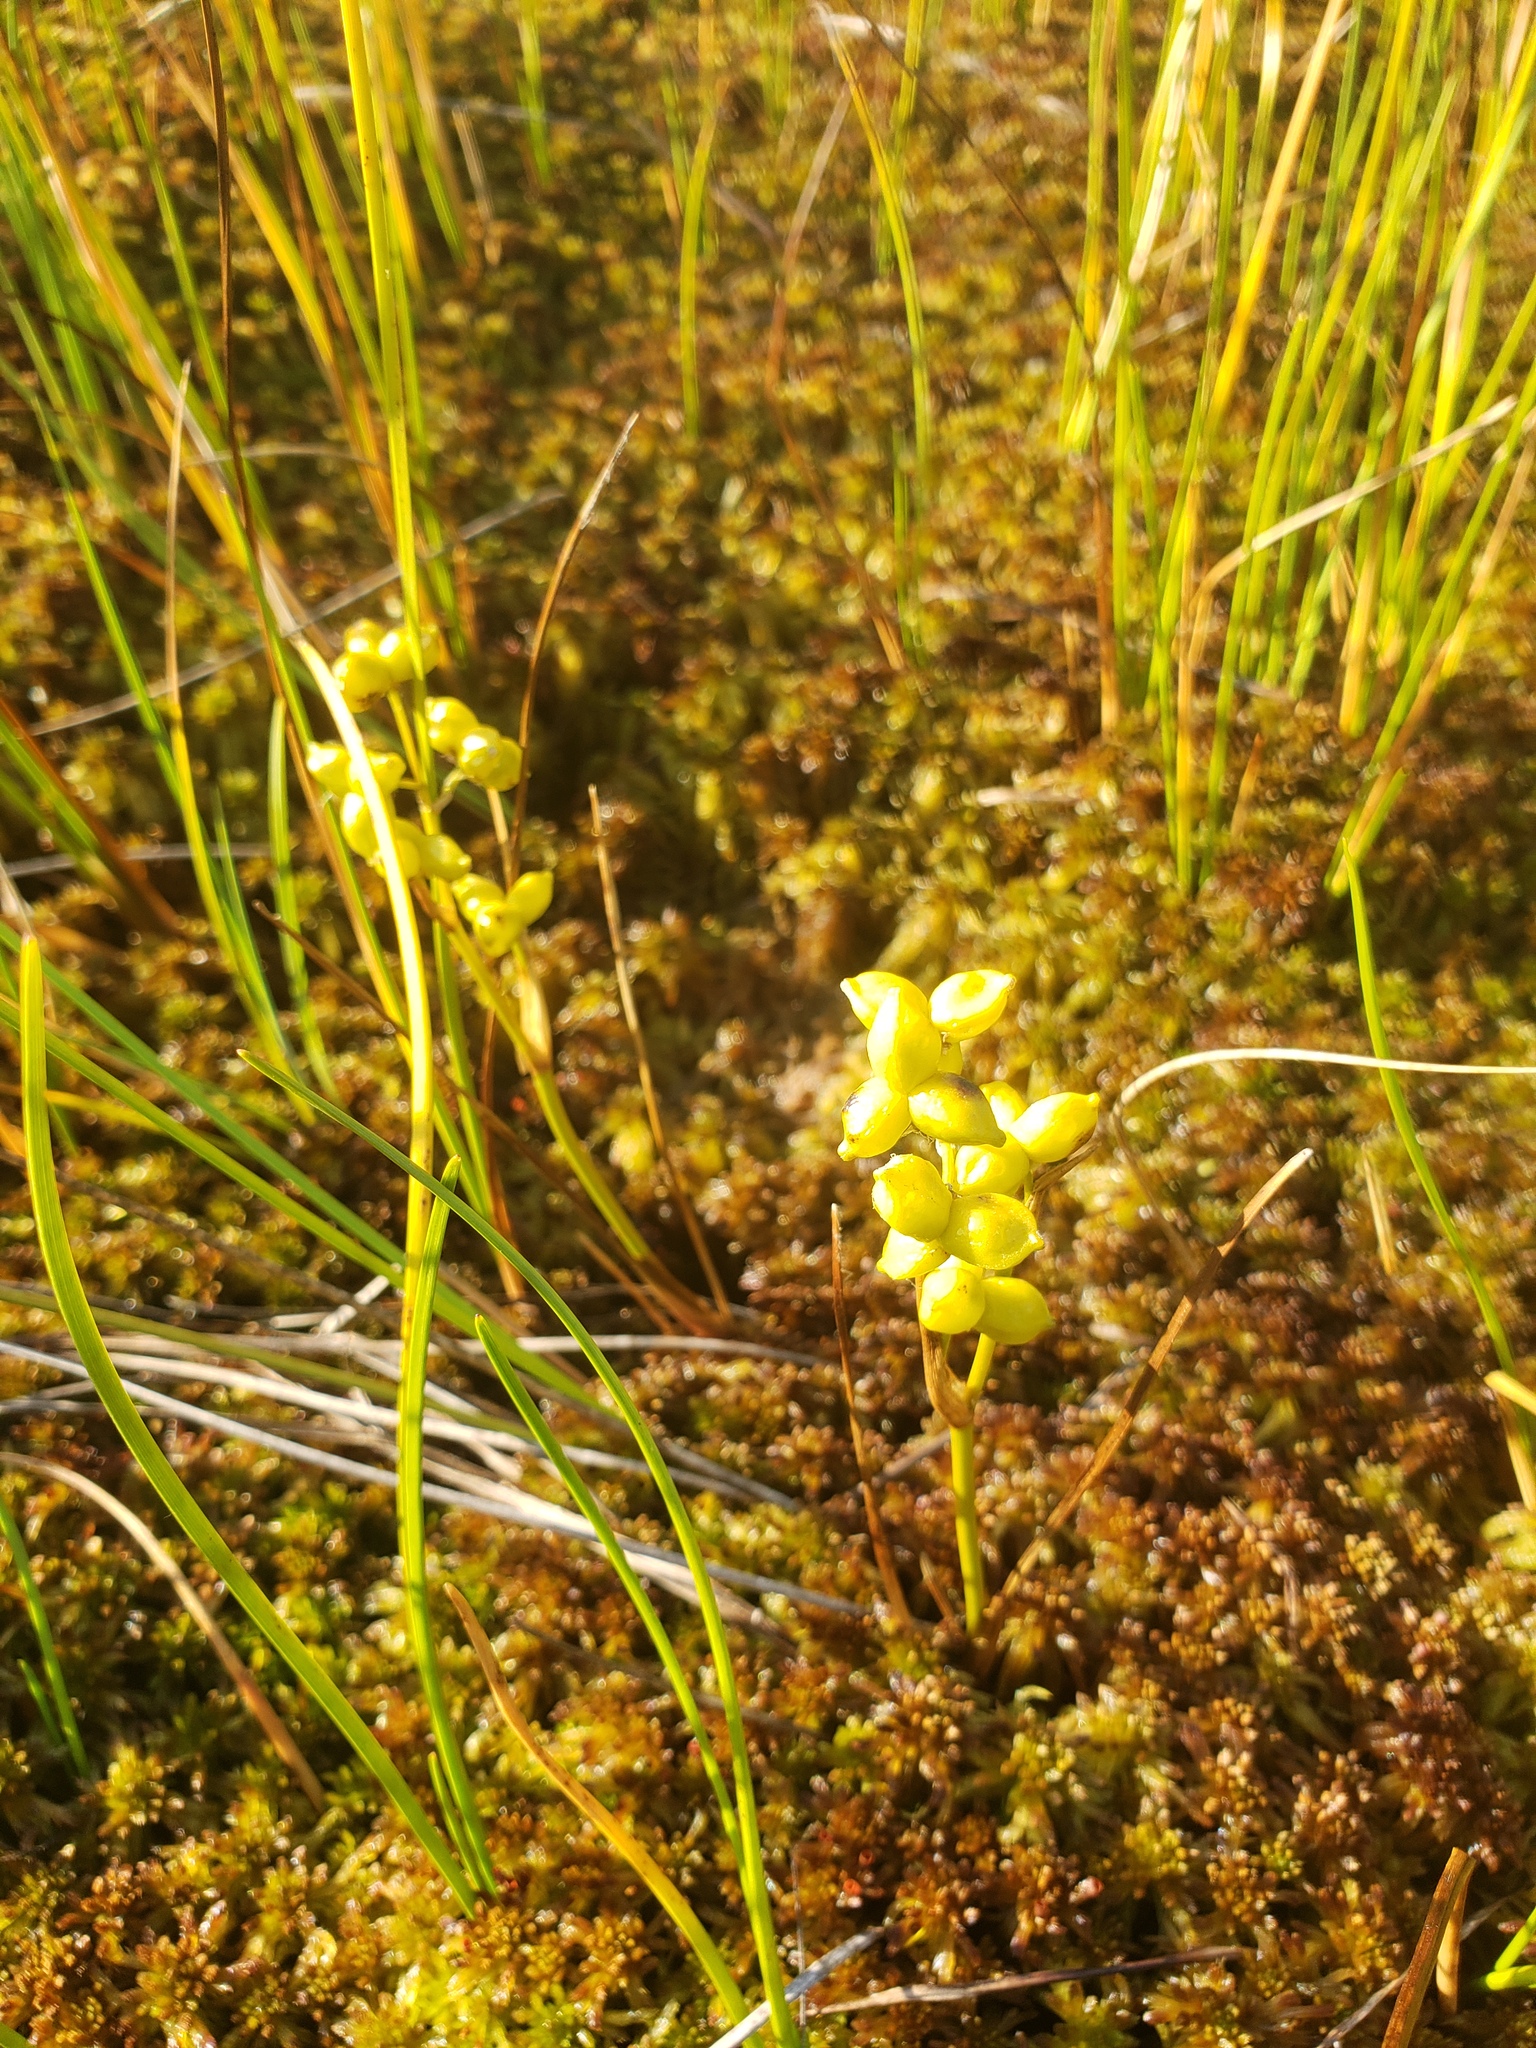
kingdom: Plantae
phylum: Tracheophyta
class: Liliopsida
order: Alismatales
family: Scheuchzeriaceae
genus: Scheuchzeria
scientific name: Scheuchzeria palustris
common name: Rannoch-rush
